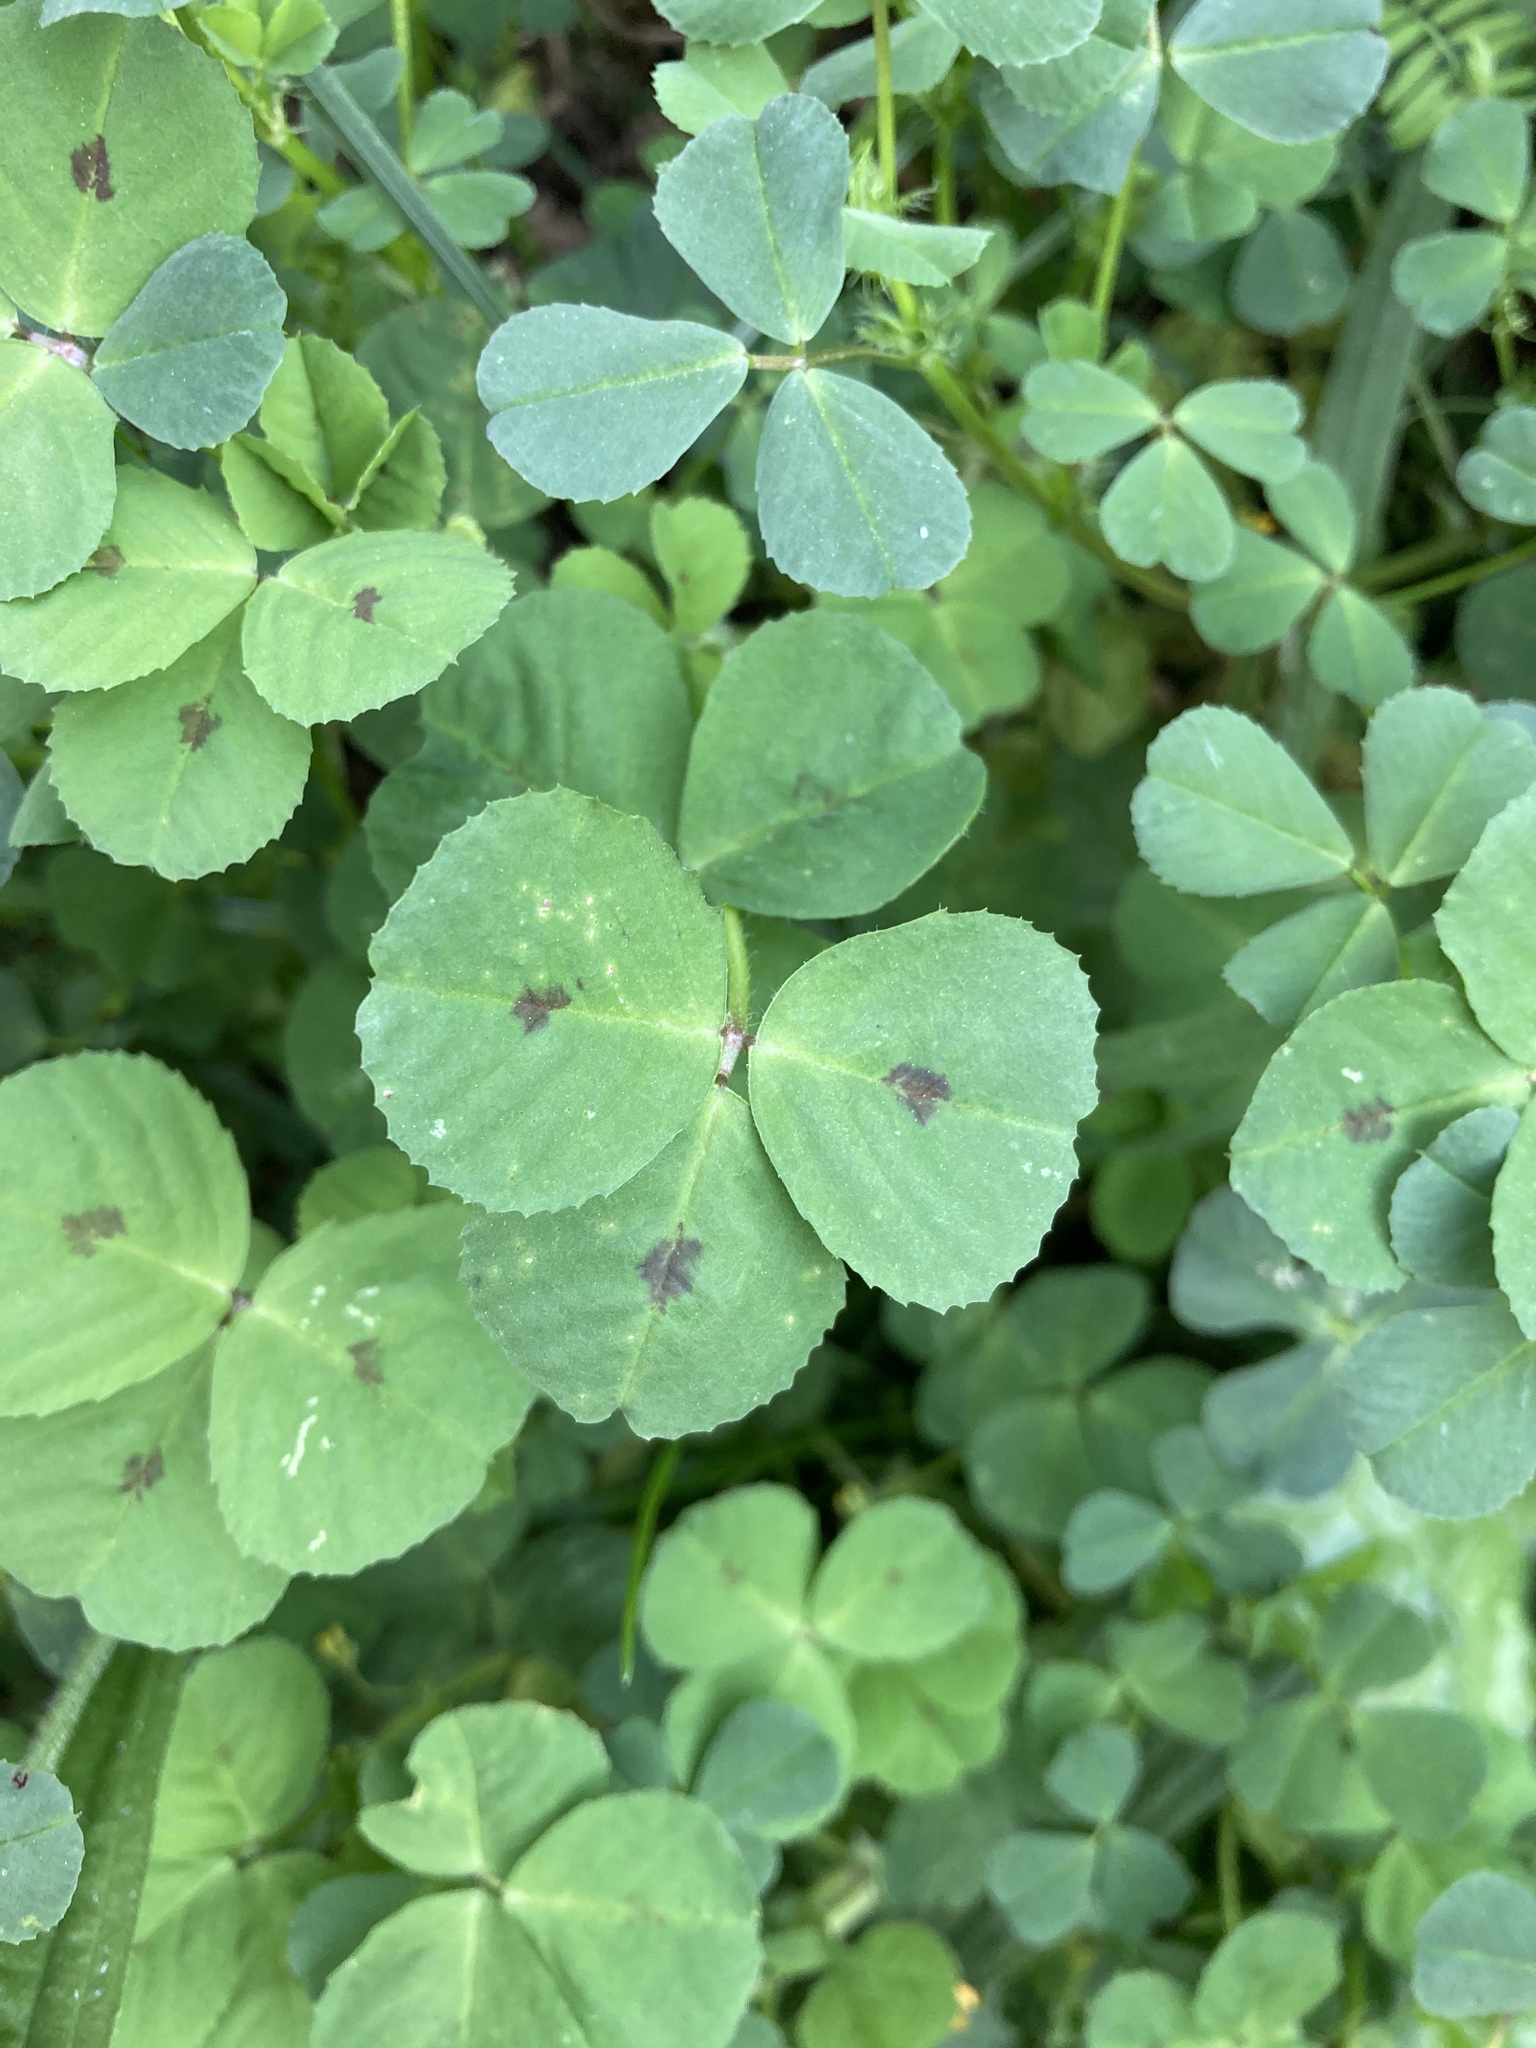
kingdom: Plantae
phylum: Tracheophyta
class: Magnoliopsida
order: Fabales
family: Fabaceae
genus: Medicago
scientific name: Medicago arabica
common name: Spotted medick
